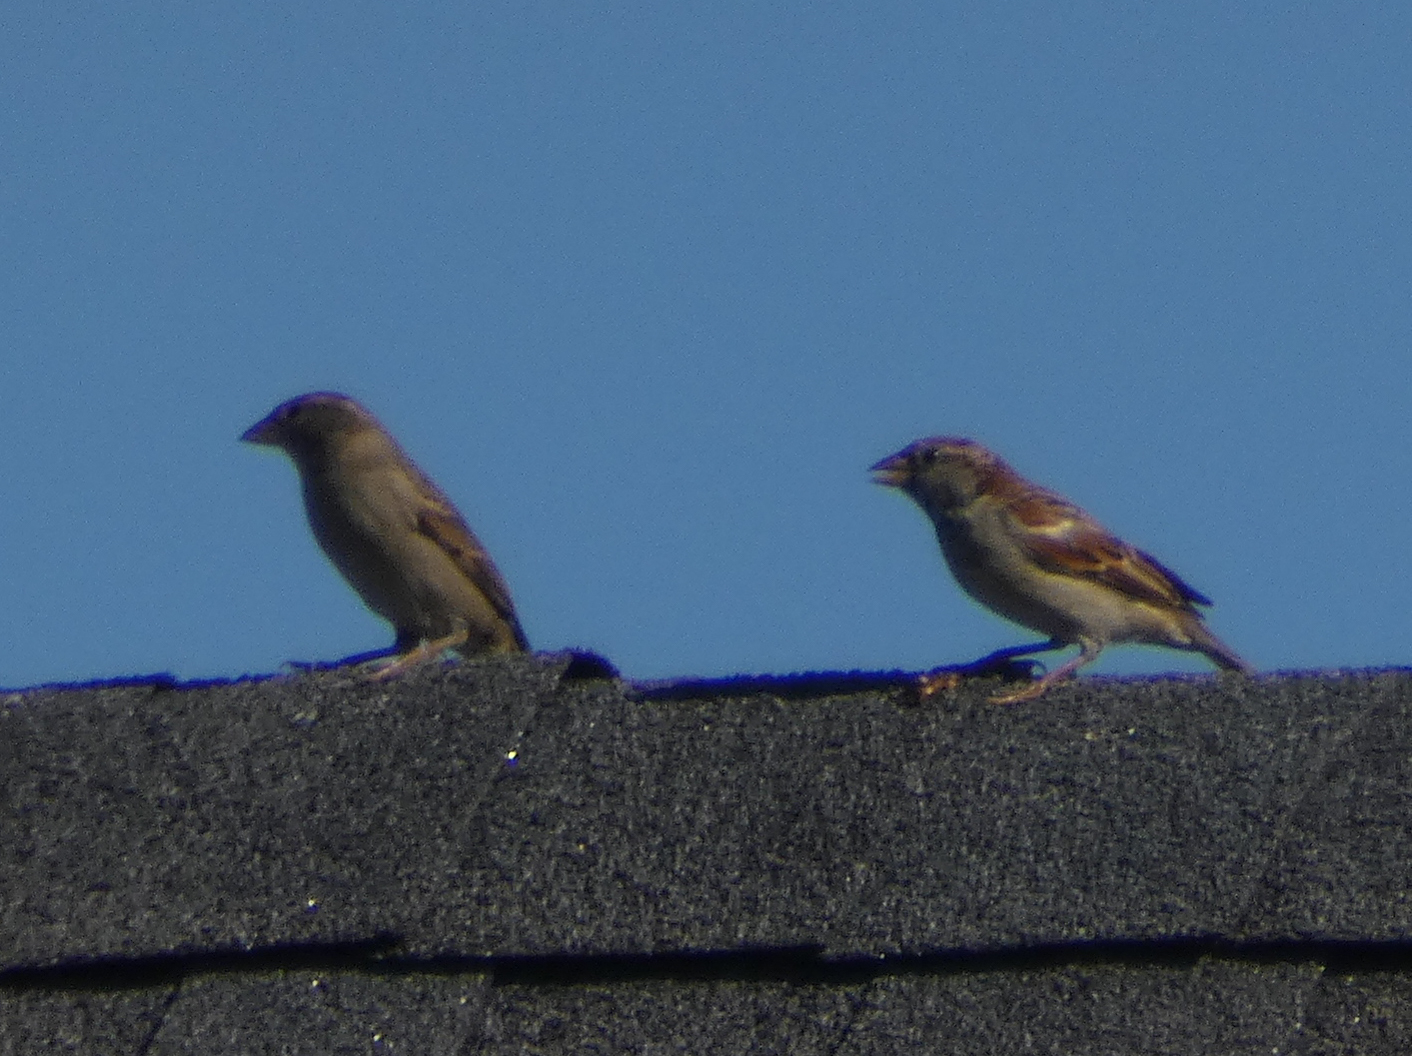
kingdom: Animalia
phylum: Chordata
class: Aves
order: Passeriformes
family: Passeridae
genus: Passer
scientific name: Passer domesticus
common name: House sparrow
